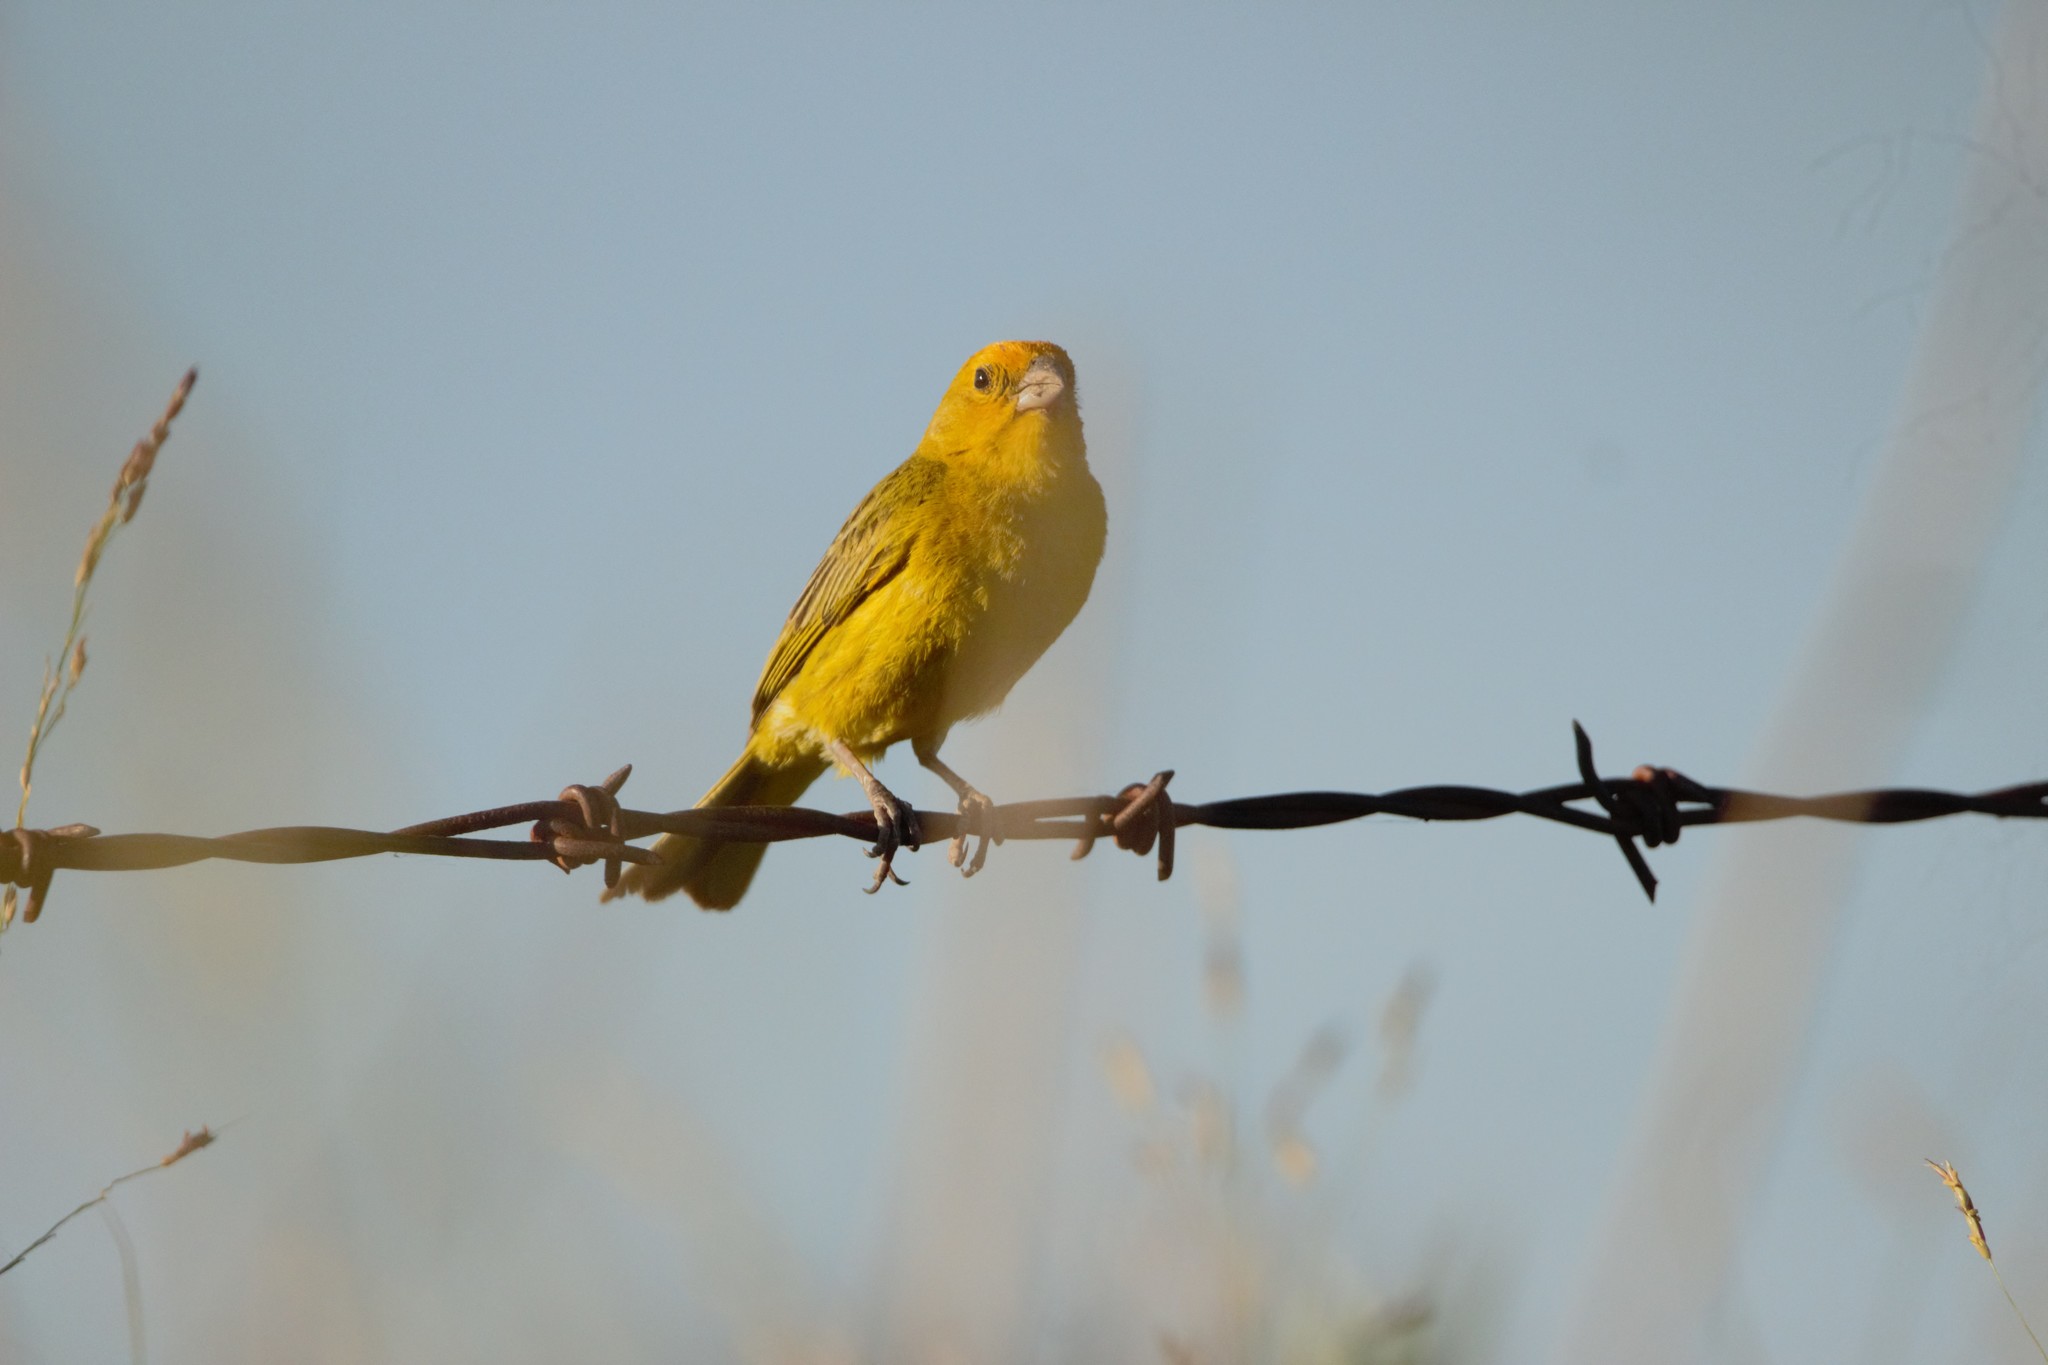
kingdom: Animalia
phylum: Chordata
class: Aves
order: Passeriformes
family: Thraupidae
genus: Sicalis
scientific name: Sicalis flaveola
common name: Saffron finch
